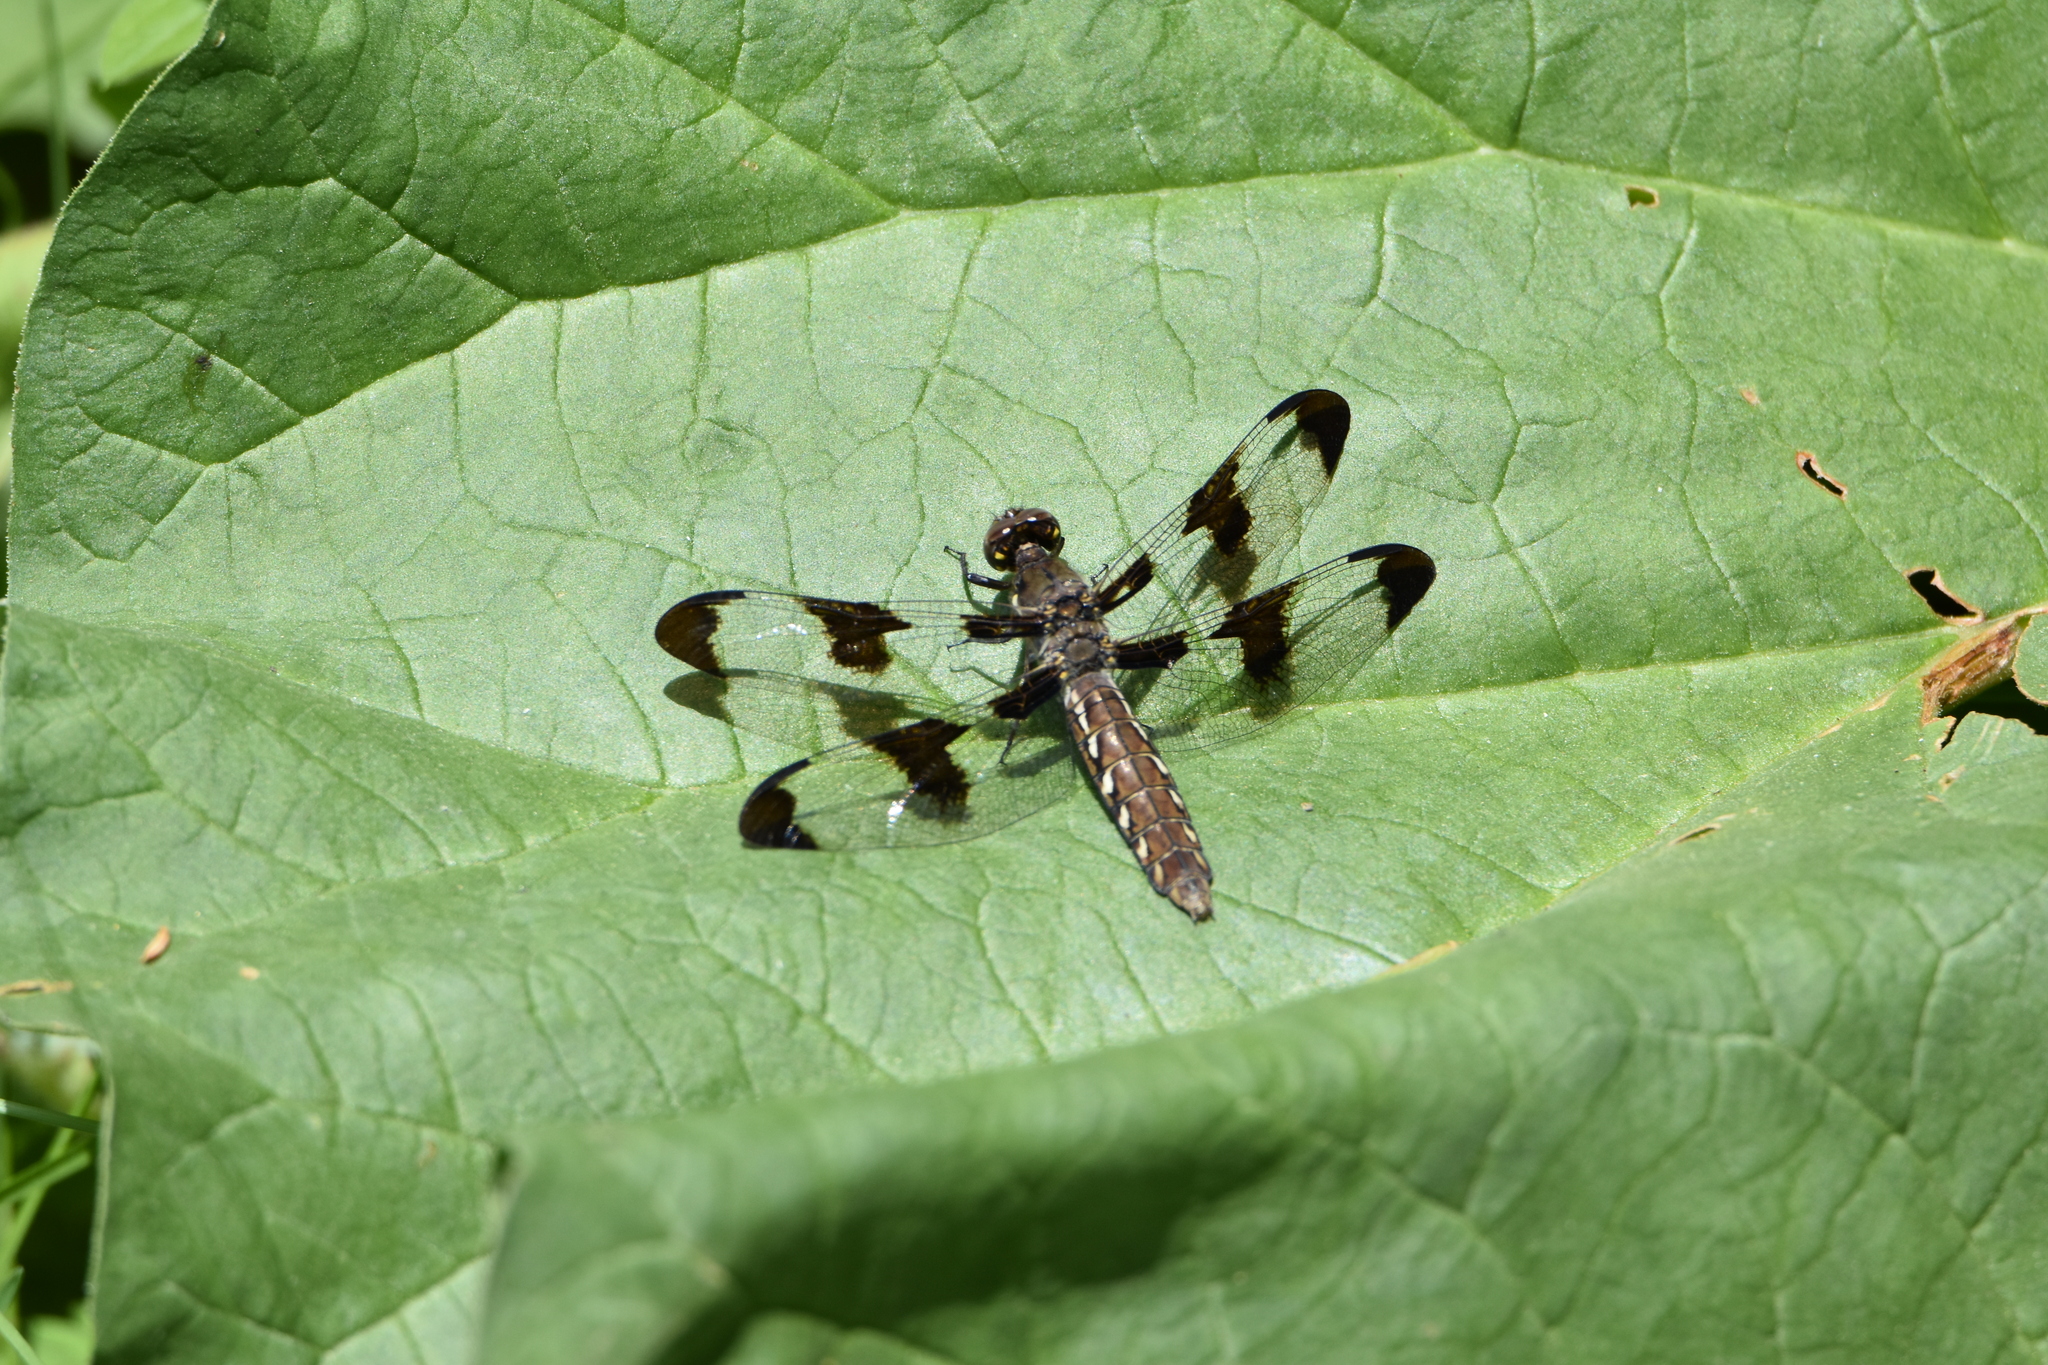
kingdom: Animalia
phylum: Arthropoda
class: Insecta
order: Odonata
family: Libellulidae
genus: Plathemis
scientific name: Plathemis lydia
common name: Common whitetail
